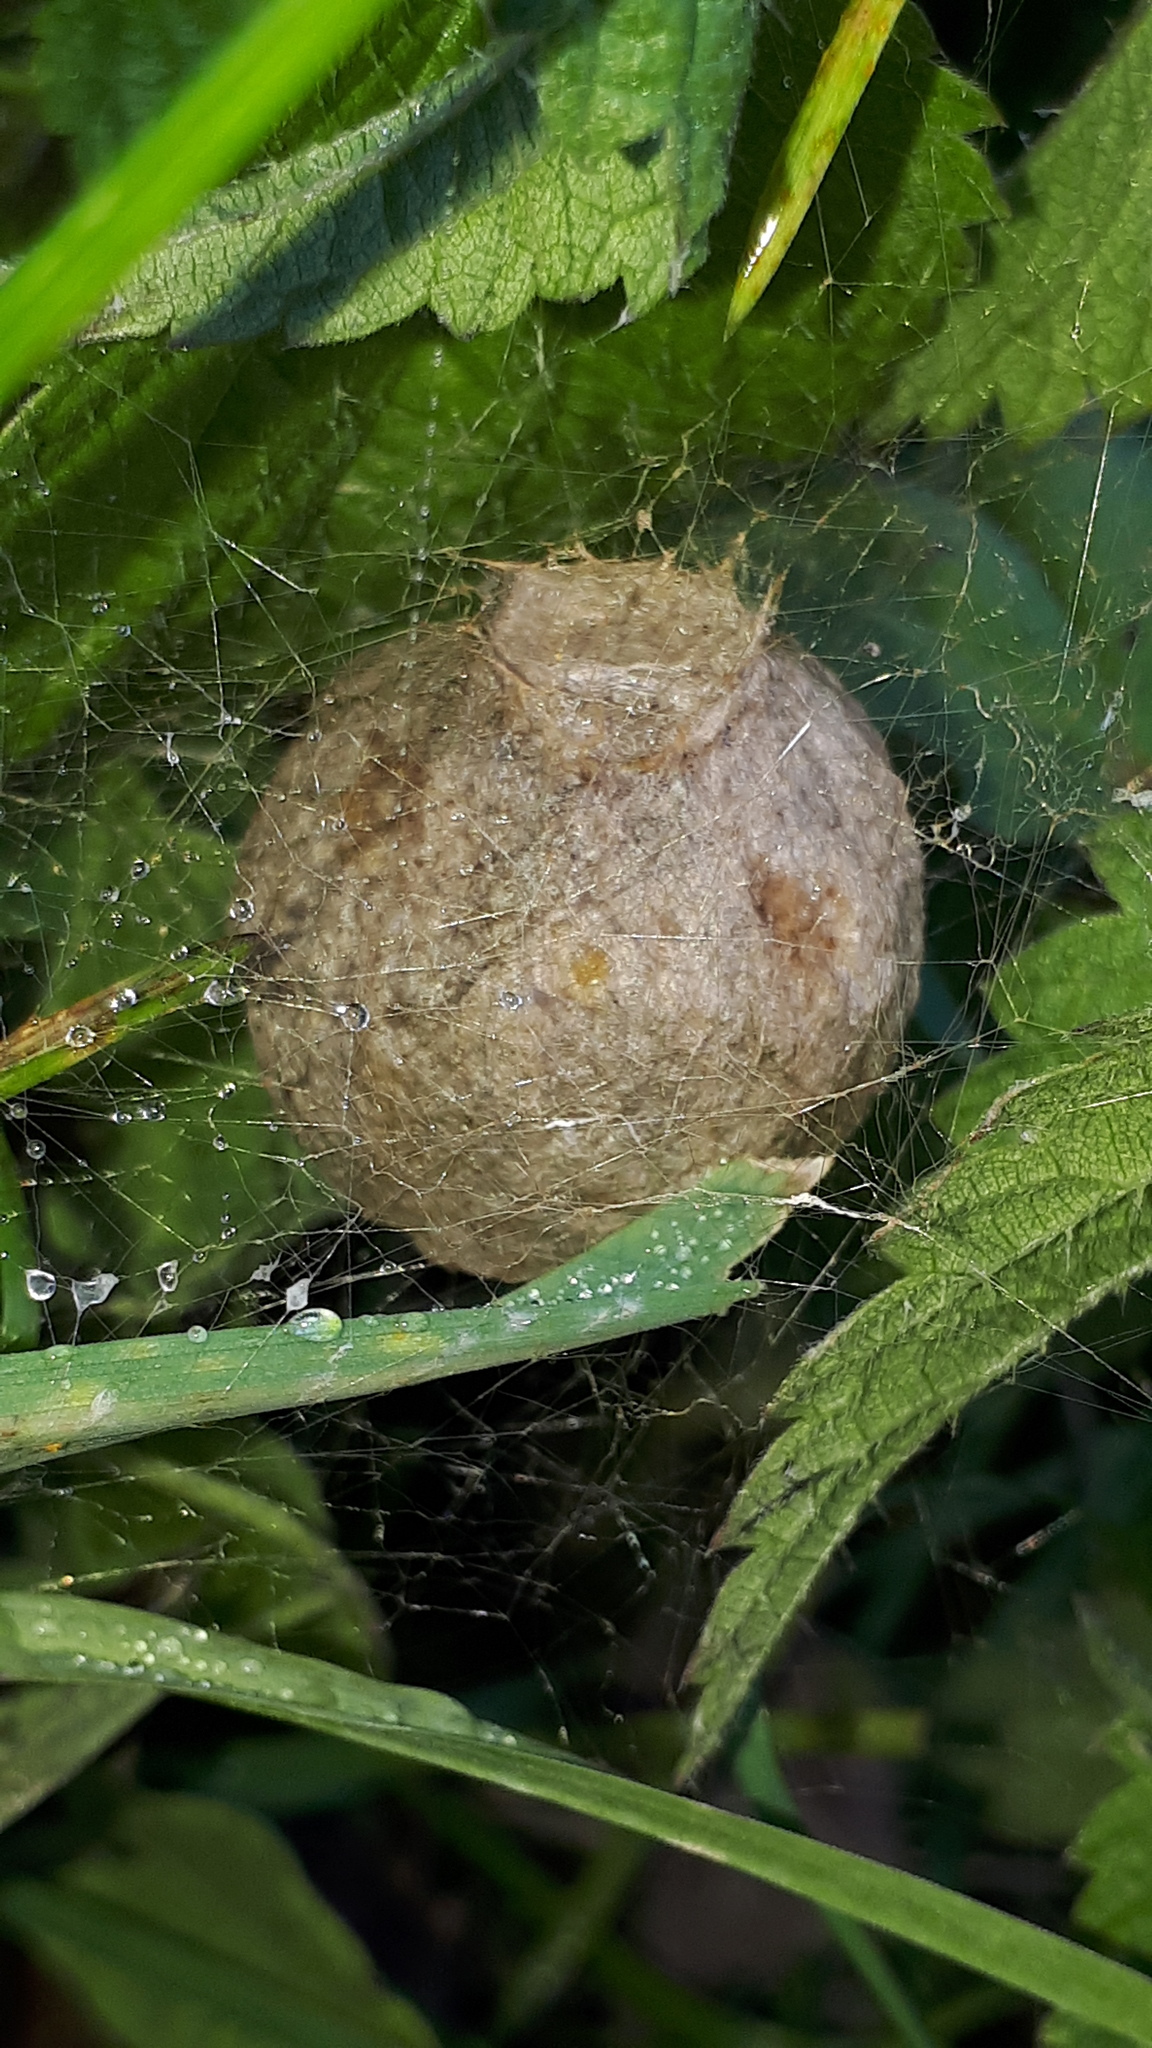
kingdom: Animalia
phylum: Arthropoda
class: Arachnida
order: Araneae
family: Araneidae
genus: Argiope
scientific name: Argiope bruennichi
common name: Wasp spider
